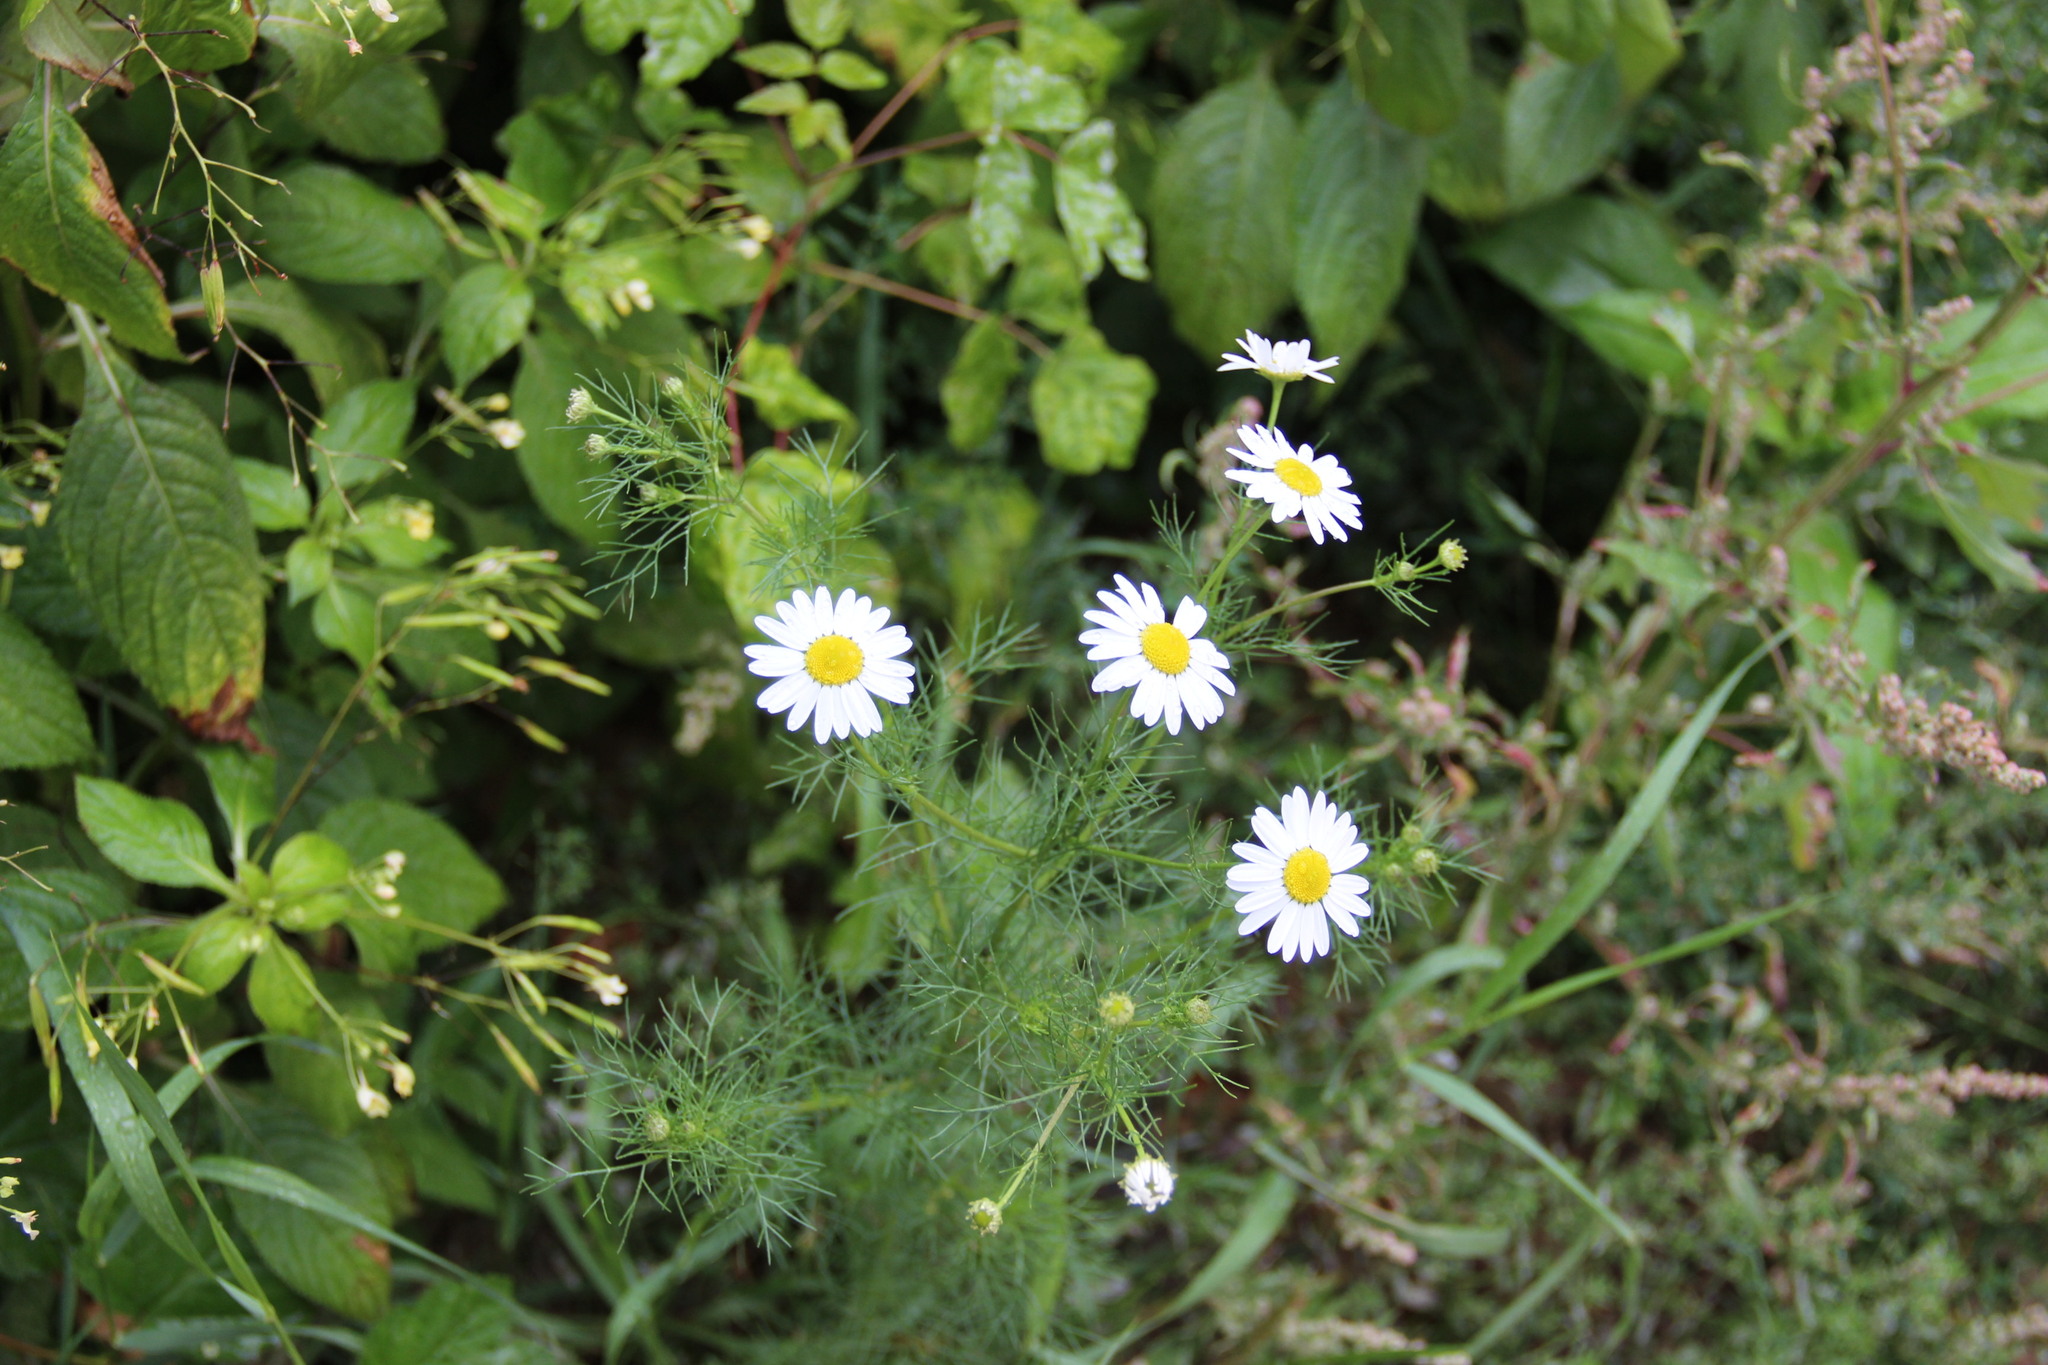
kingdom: Plantae
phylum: Tracheophyta
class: Magnoliopsida
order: Asterales
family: Asteraceae
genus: Tripleurospermum
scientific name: Tripleurospermum inodorum
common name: Scentless mayweed
